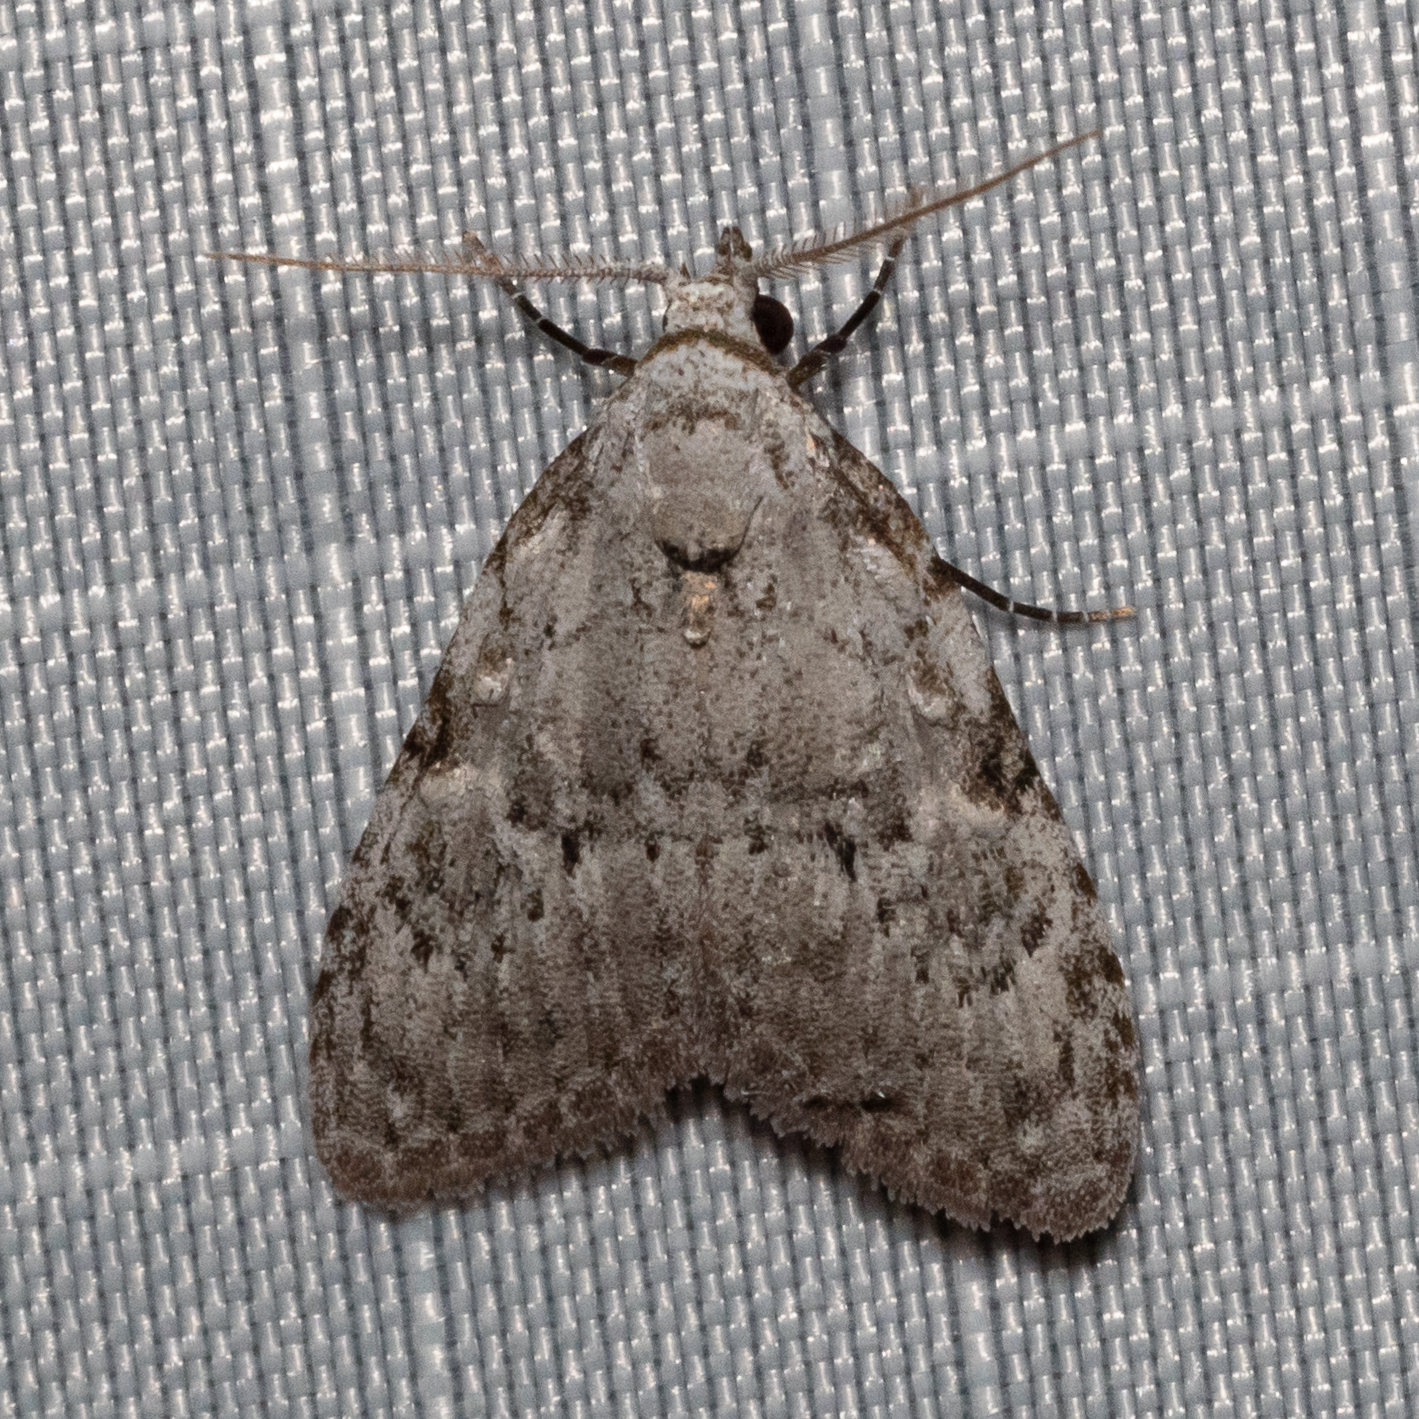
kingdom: Animalia
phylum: Arthropoda
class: Insecta
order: Lepidoptera
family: Nolidae
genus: Meganola
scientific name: Meganola minuscula
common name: Confused meganola moth
